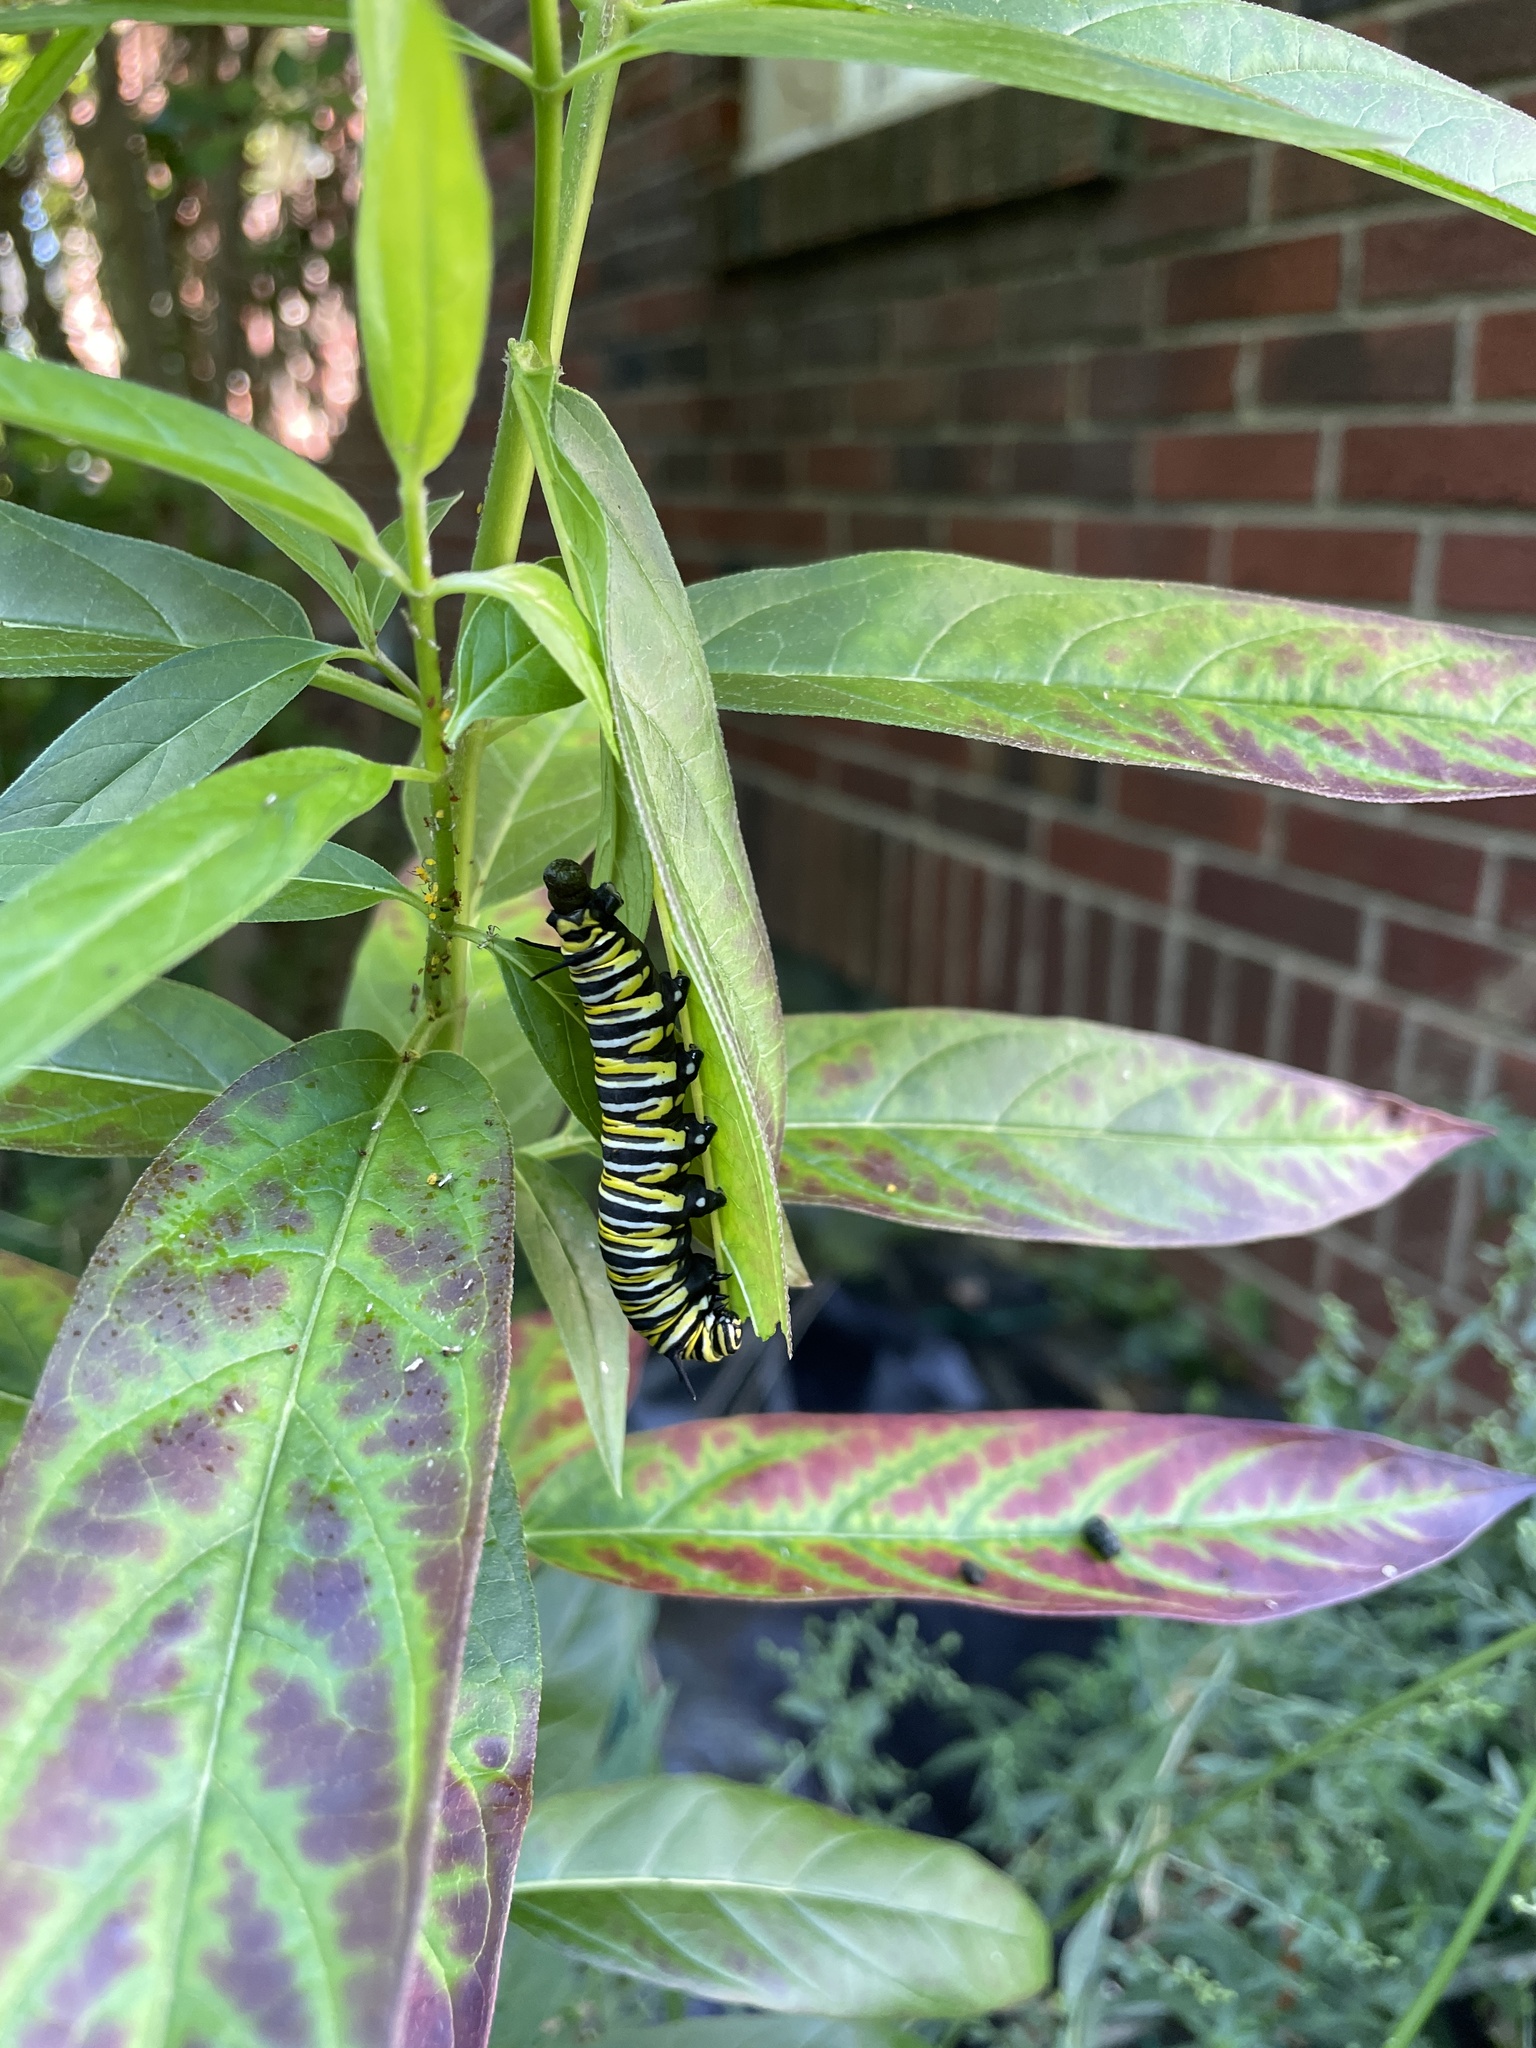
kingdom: Animalia
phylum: Arthropoda
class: Insecta
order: Lepidoptera
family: Nymphalidae
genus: Danaus
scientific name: Danaus plexippus
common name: Monarch
